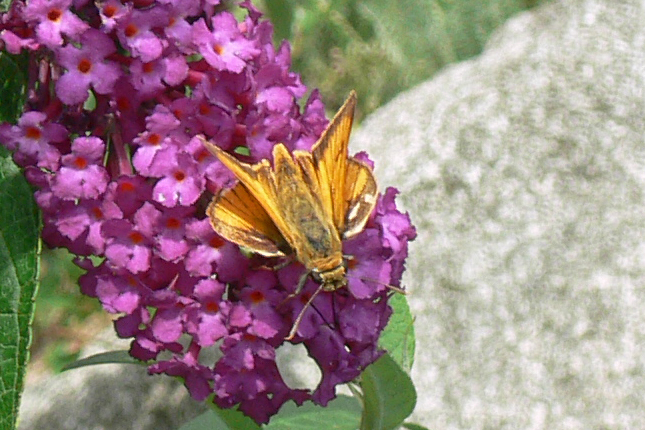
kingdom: Animalia
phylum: Arthropoda
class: Insecta
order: Lepidoptera
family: Hesperiidae
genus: Atrytone
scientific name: Atrytone delaware
